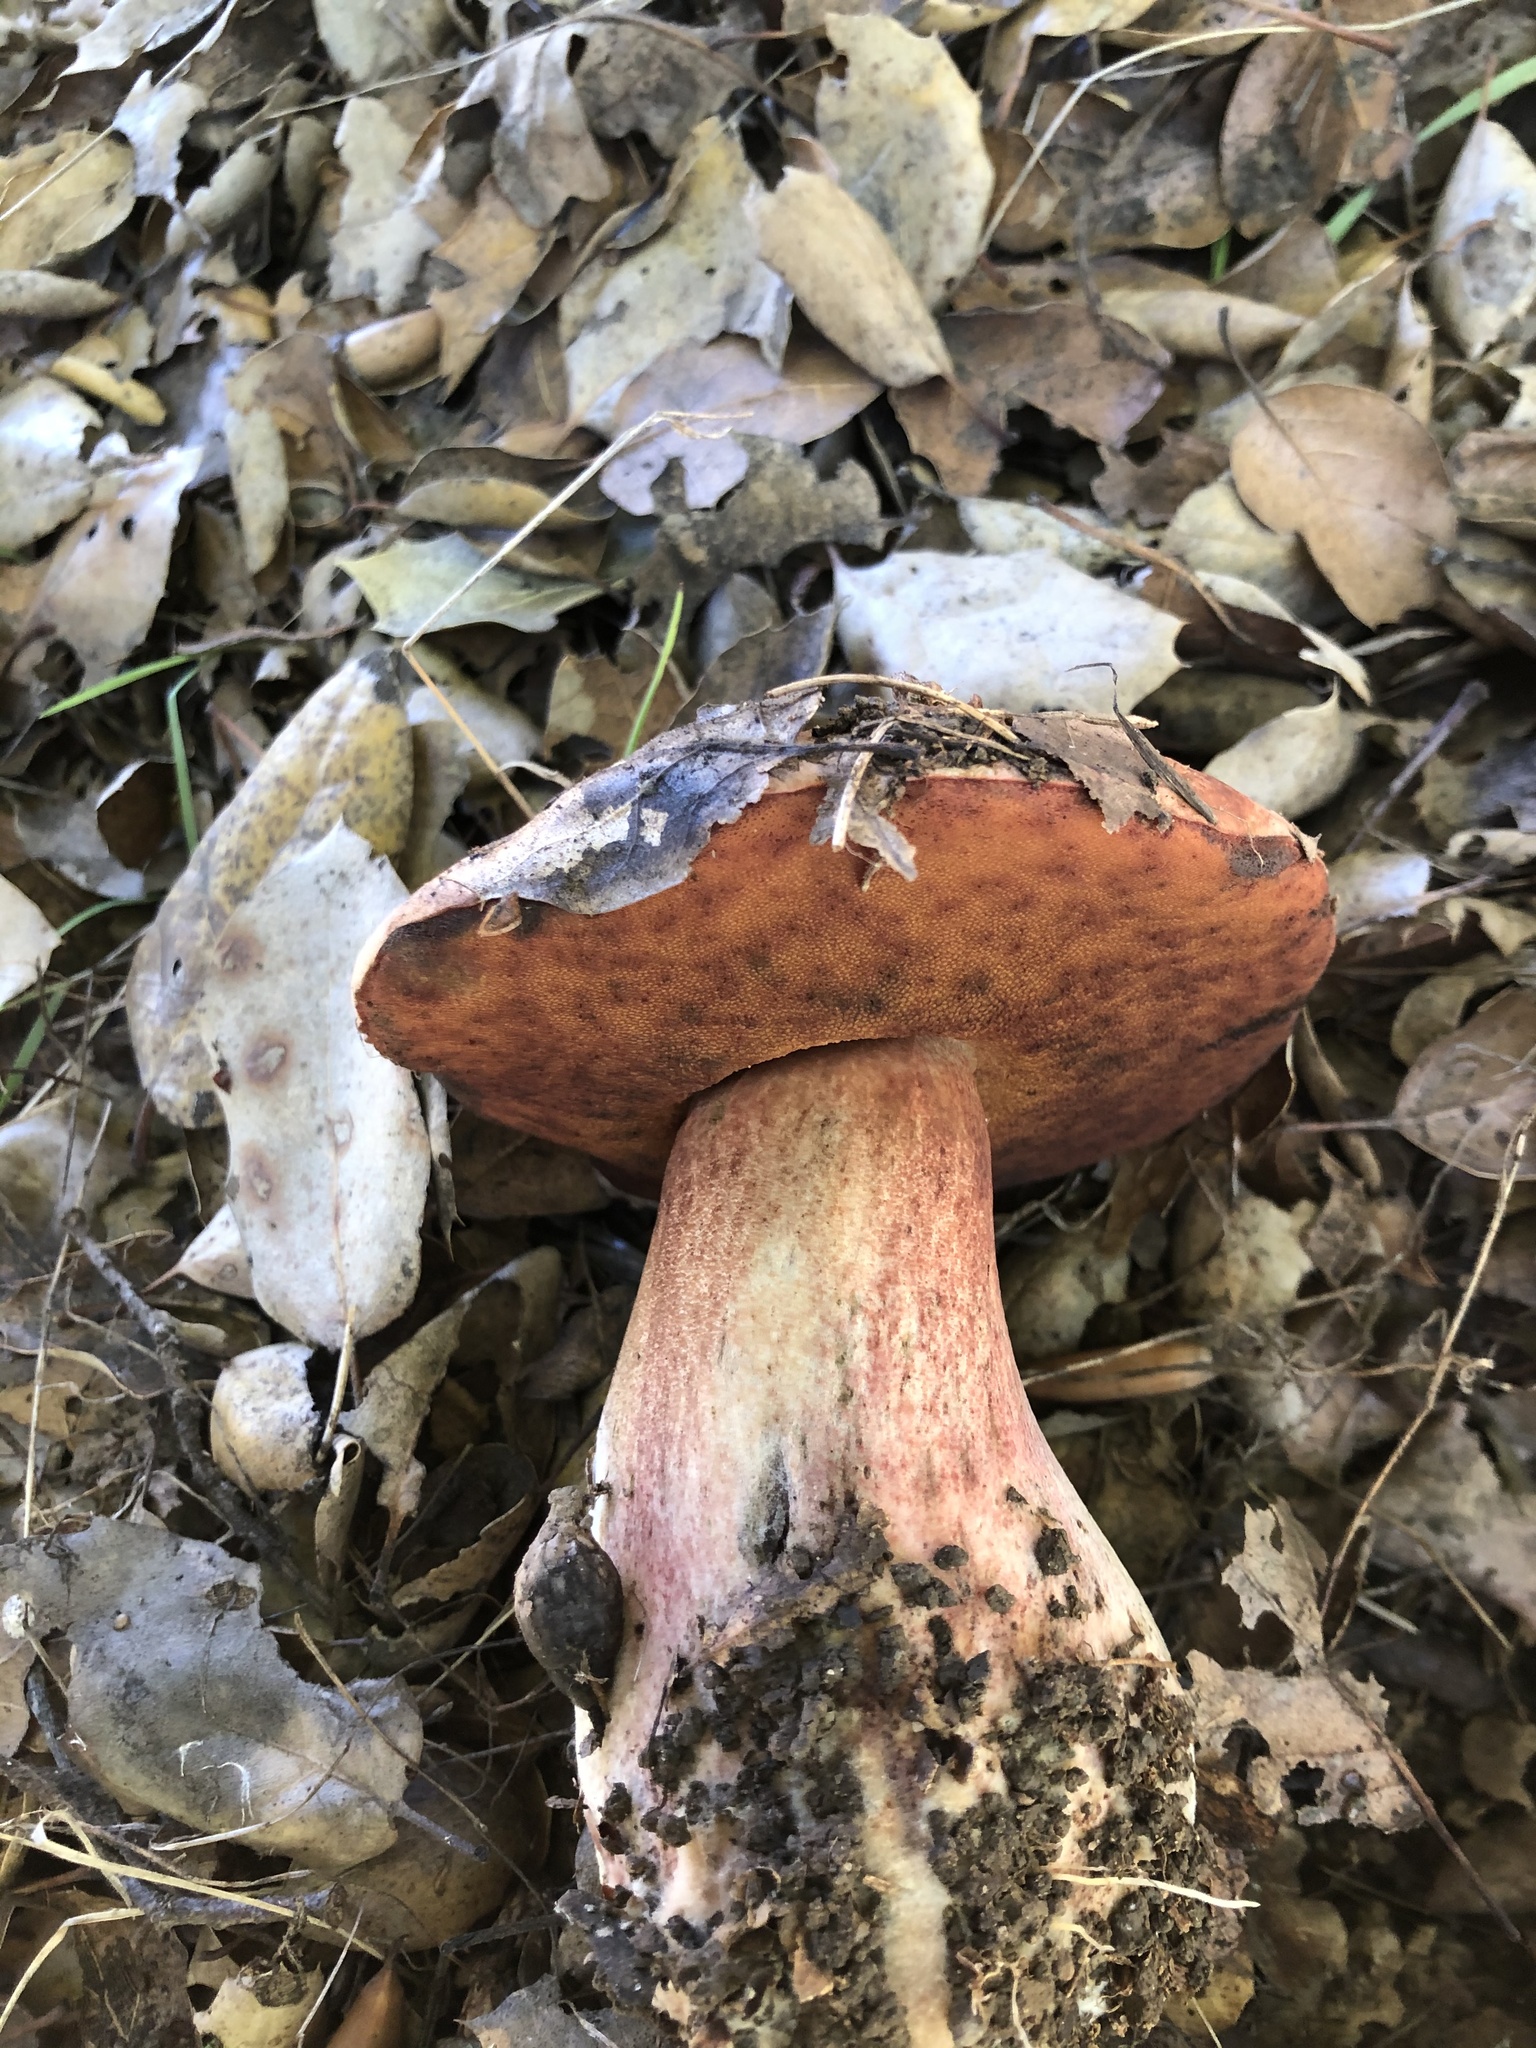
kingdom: Fungi
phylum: Basidiomycota
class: Agaricomycetes
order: Boletales
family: Boletaceae
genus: Suillellus
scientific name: Suillellus amygdalinus
